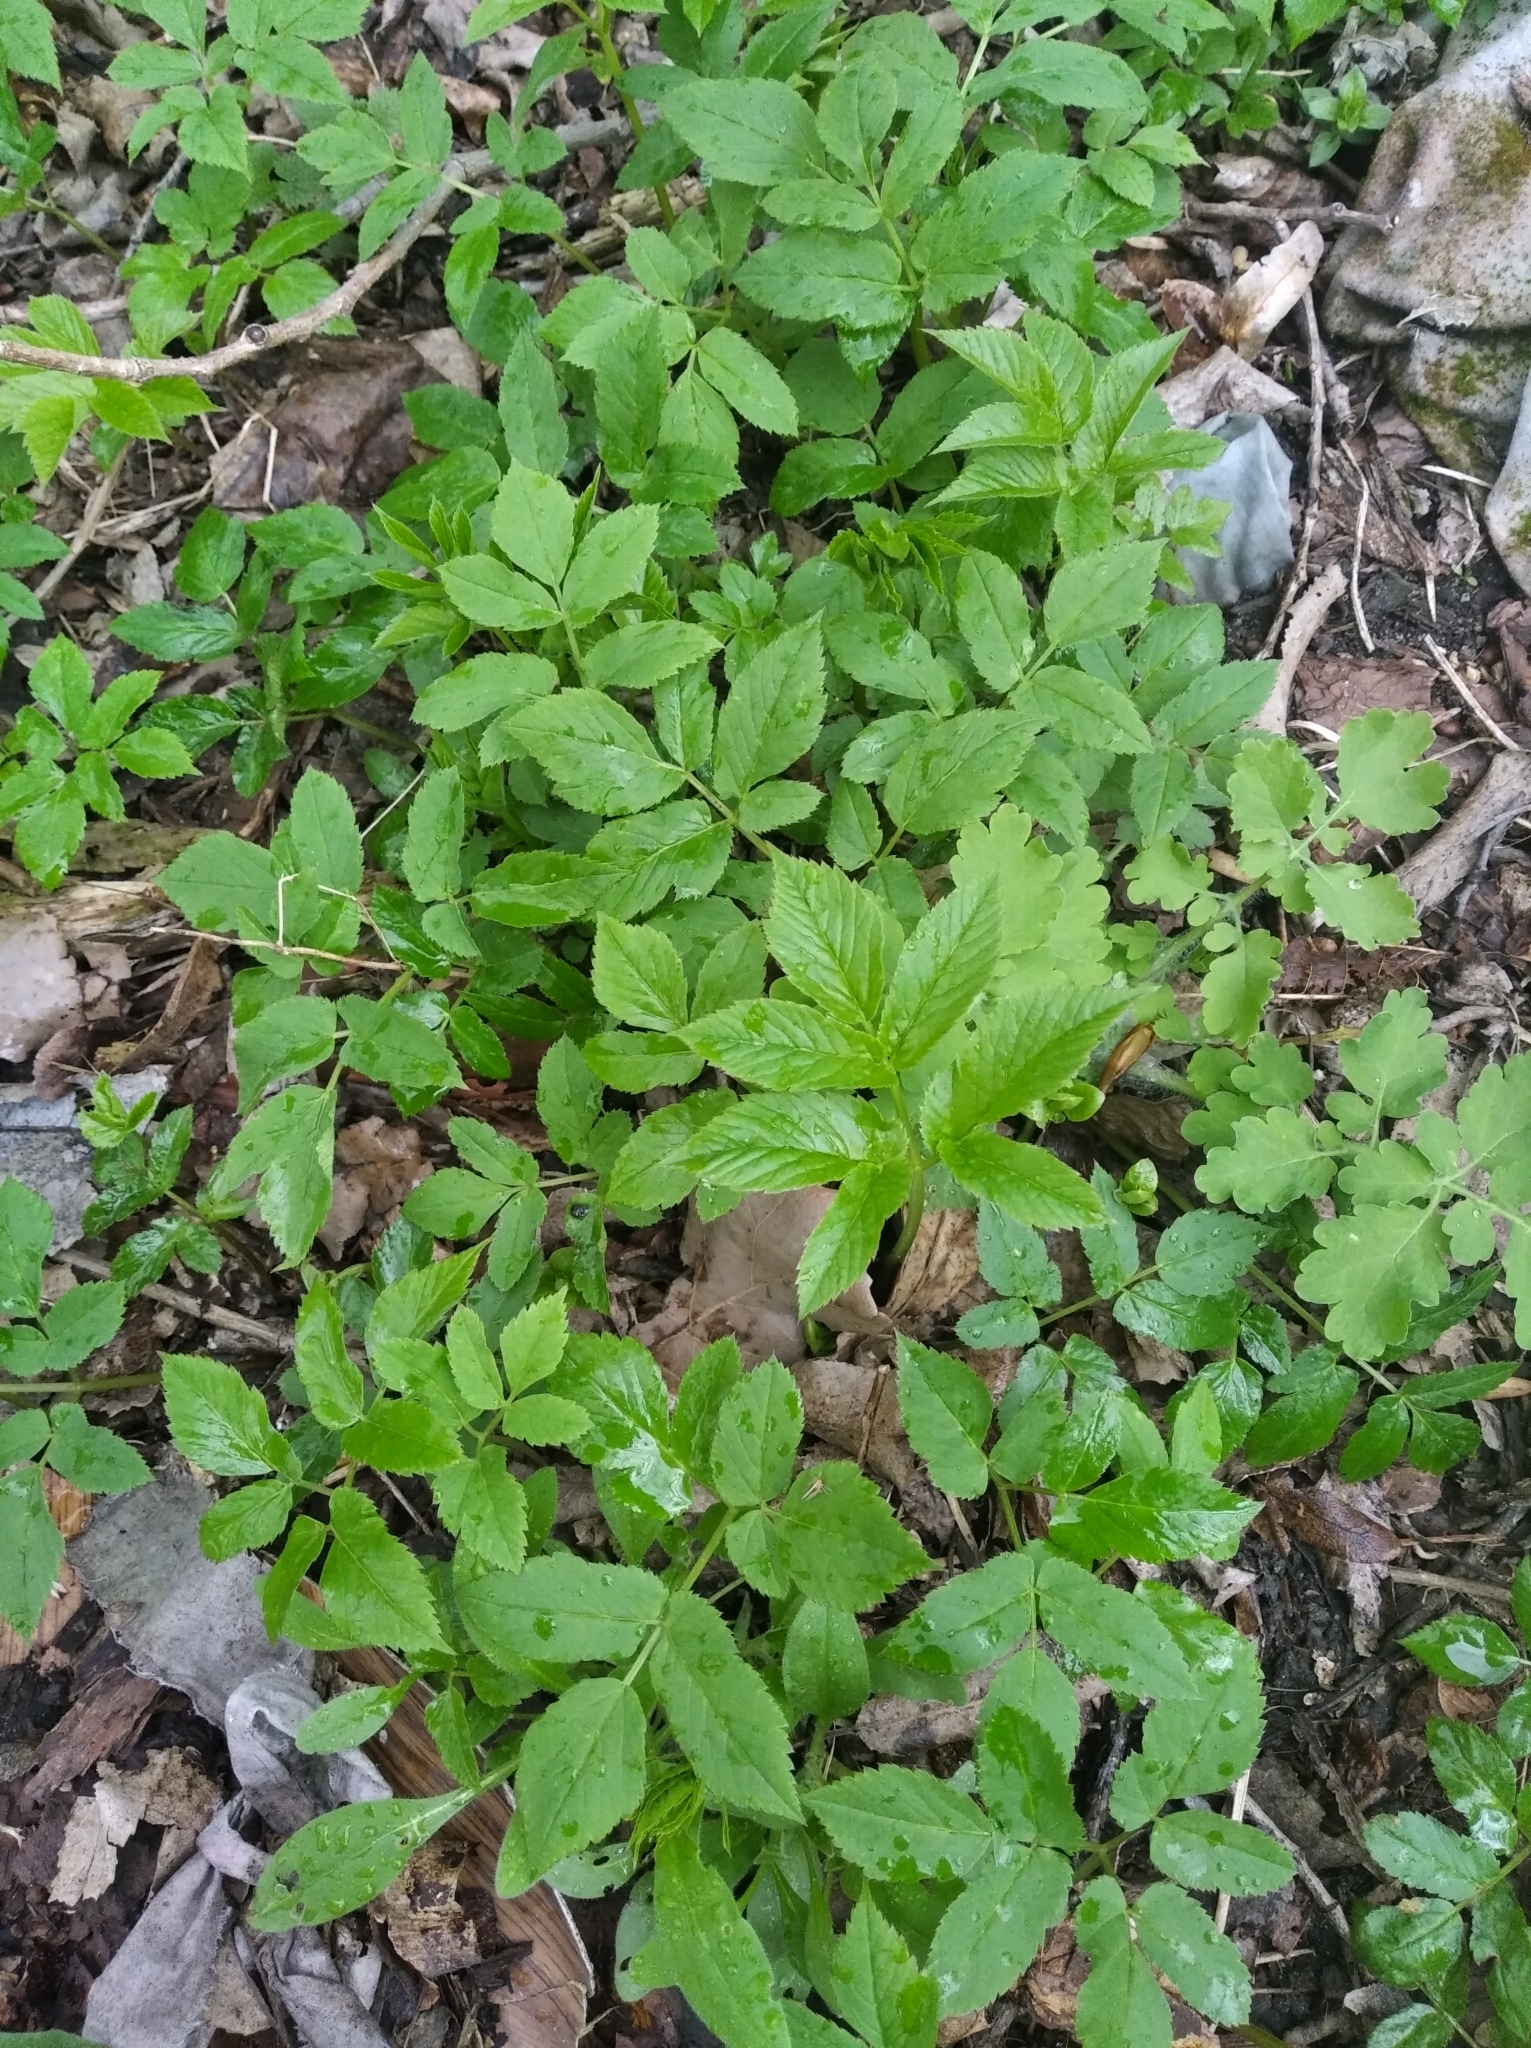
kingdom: Plantae
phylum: Tracheophyta
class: Magnoliopsida
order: Apiales
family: Apiaceae
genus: Aegopodium
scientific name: Aegopodium podagraria
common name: Ground-elder
